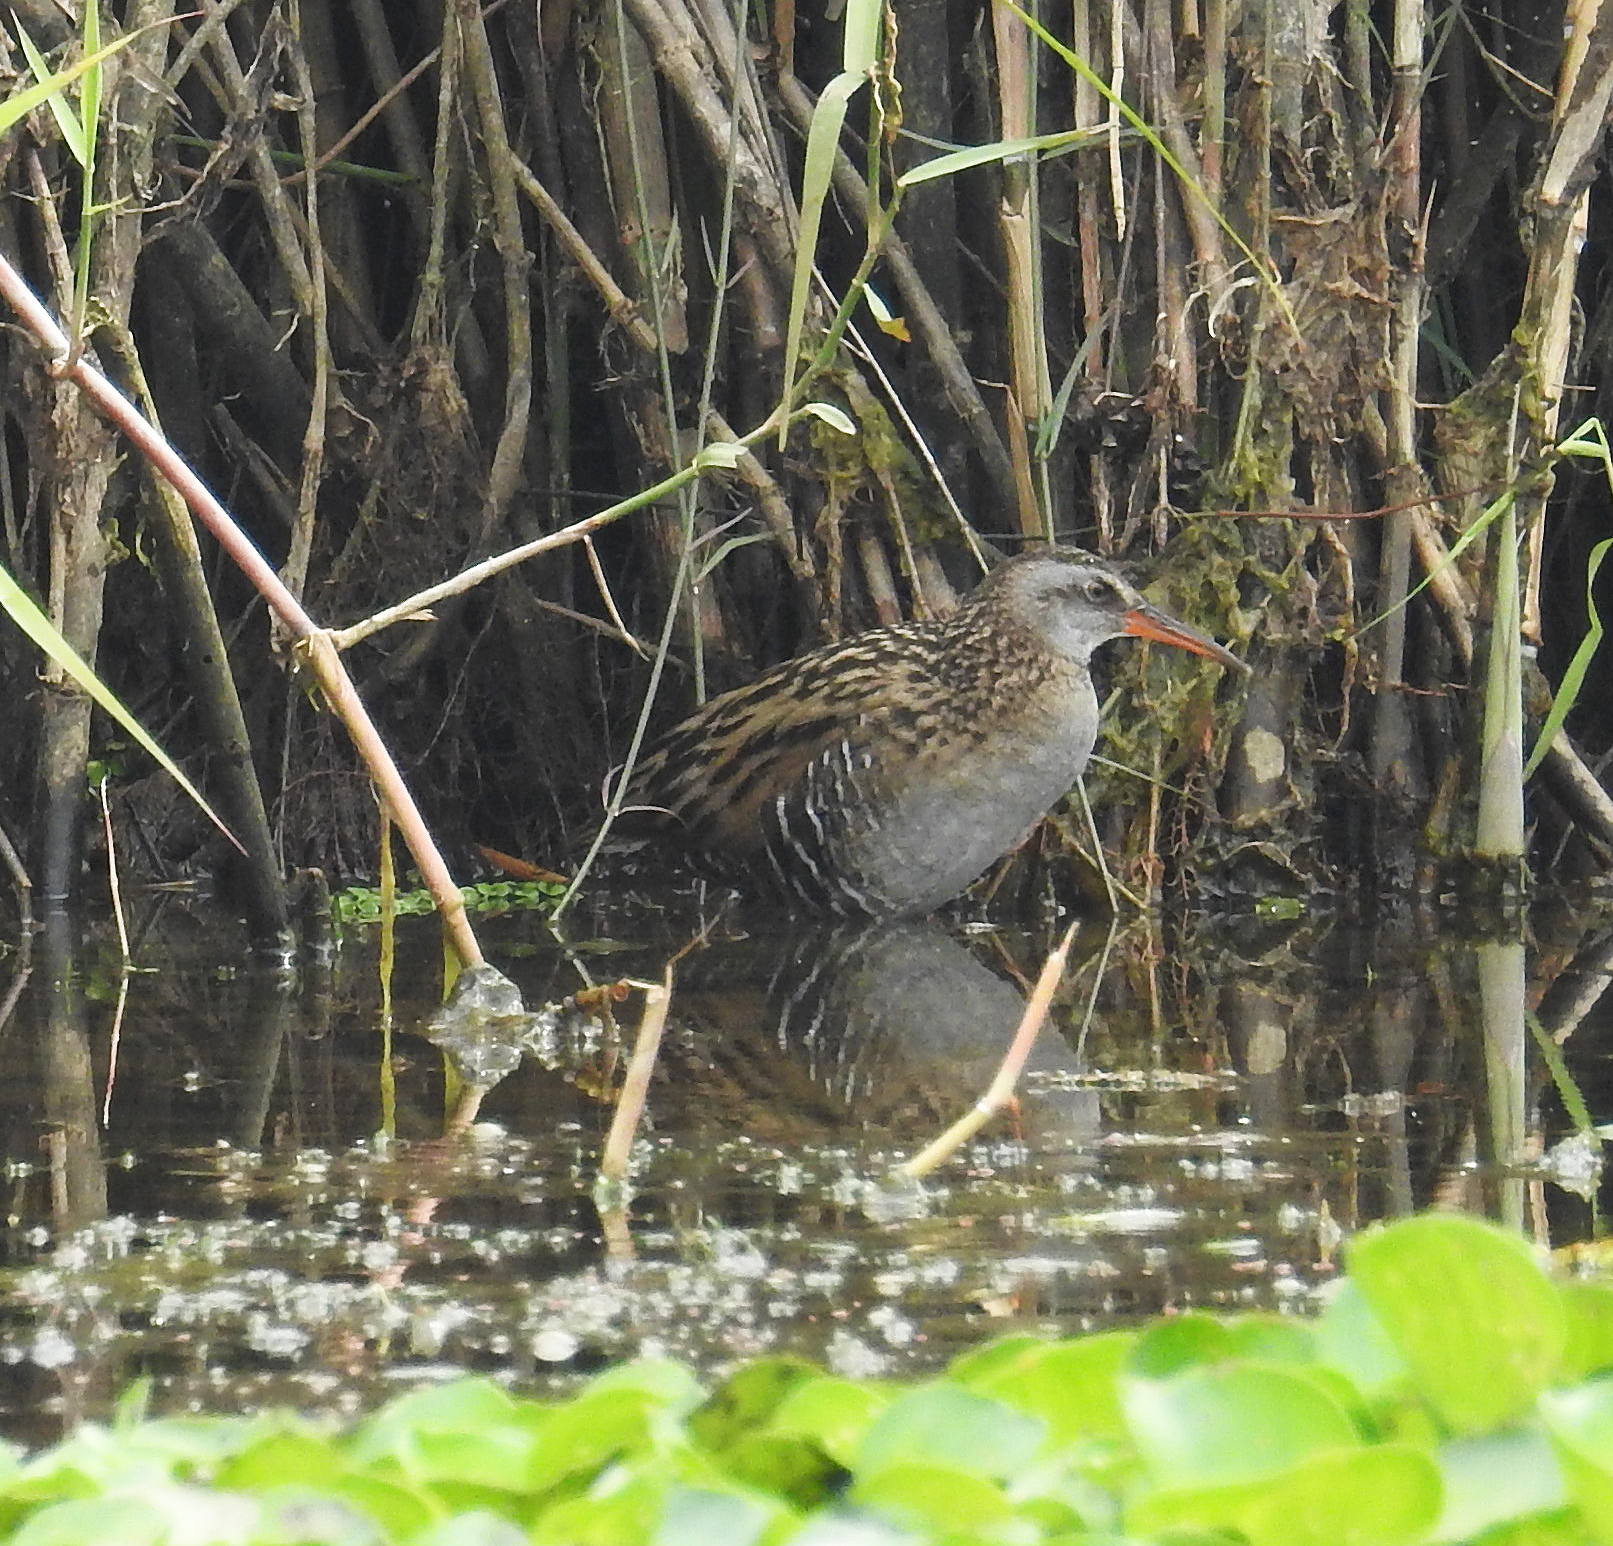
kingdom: Animalia
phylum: Chordata
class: Aves
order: Gruiformes
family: Rallidae
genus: Rallus
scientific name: Rallus indicus
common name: Brown-cheeked rail
